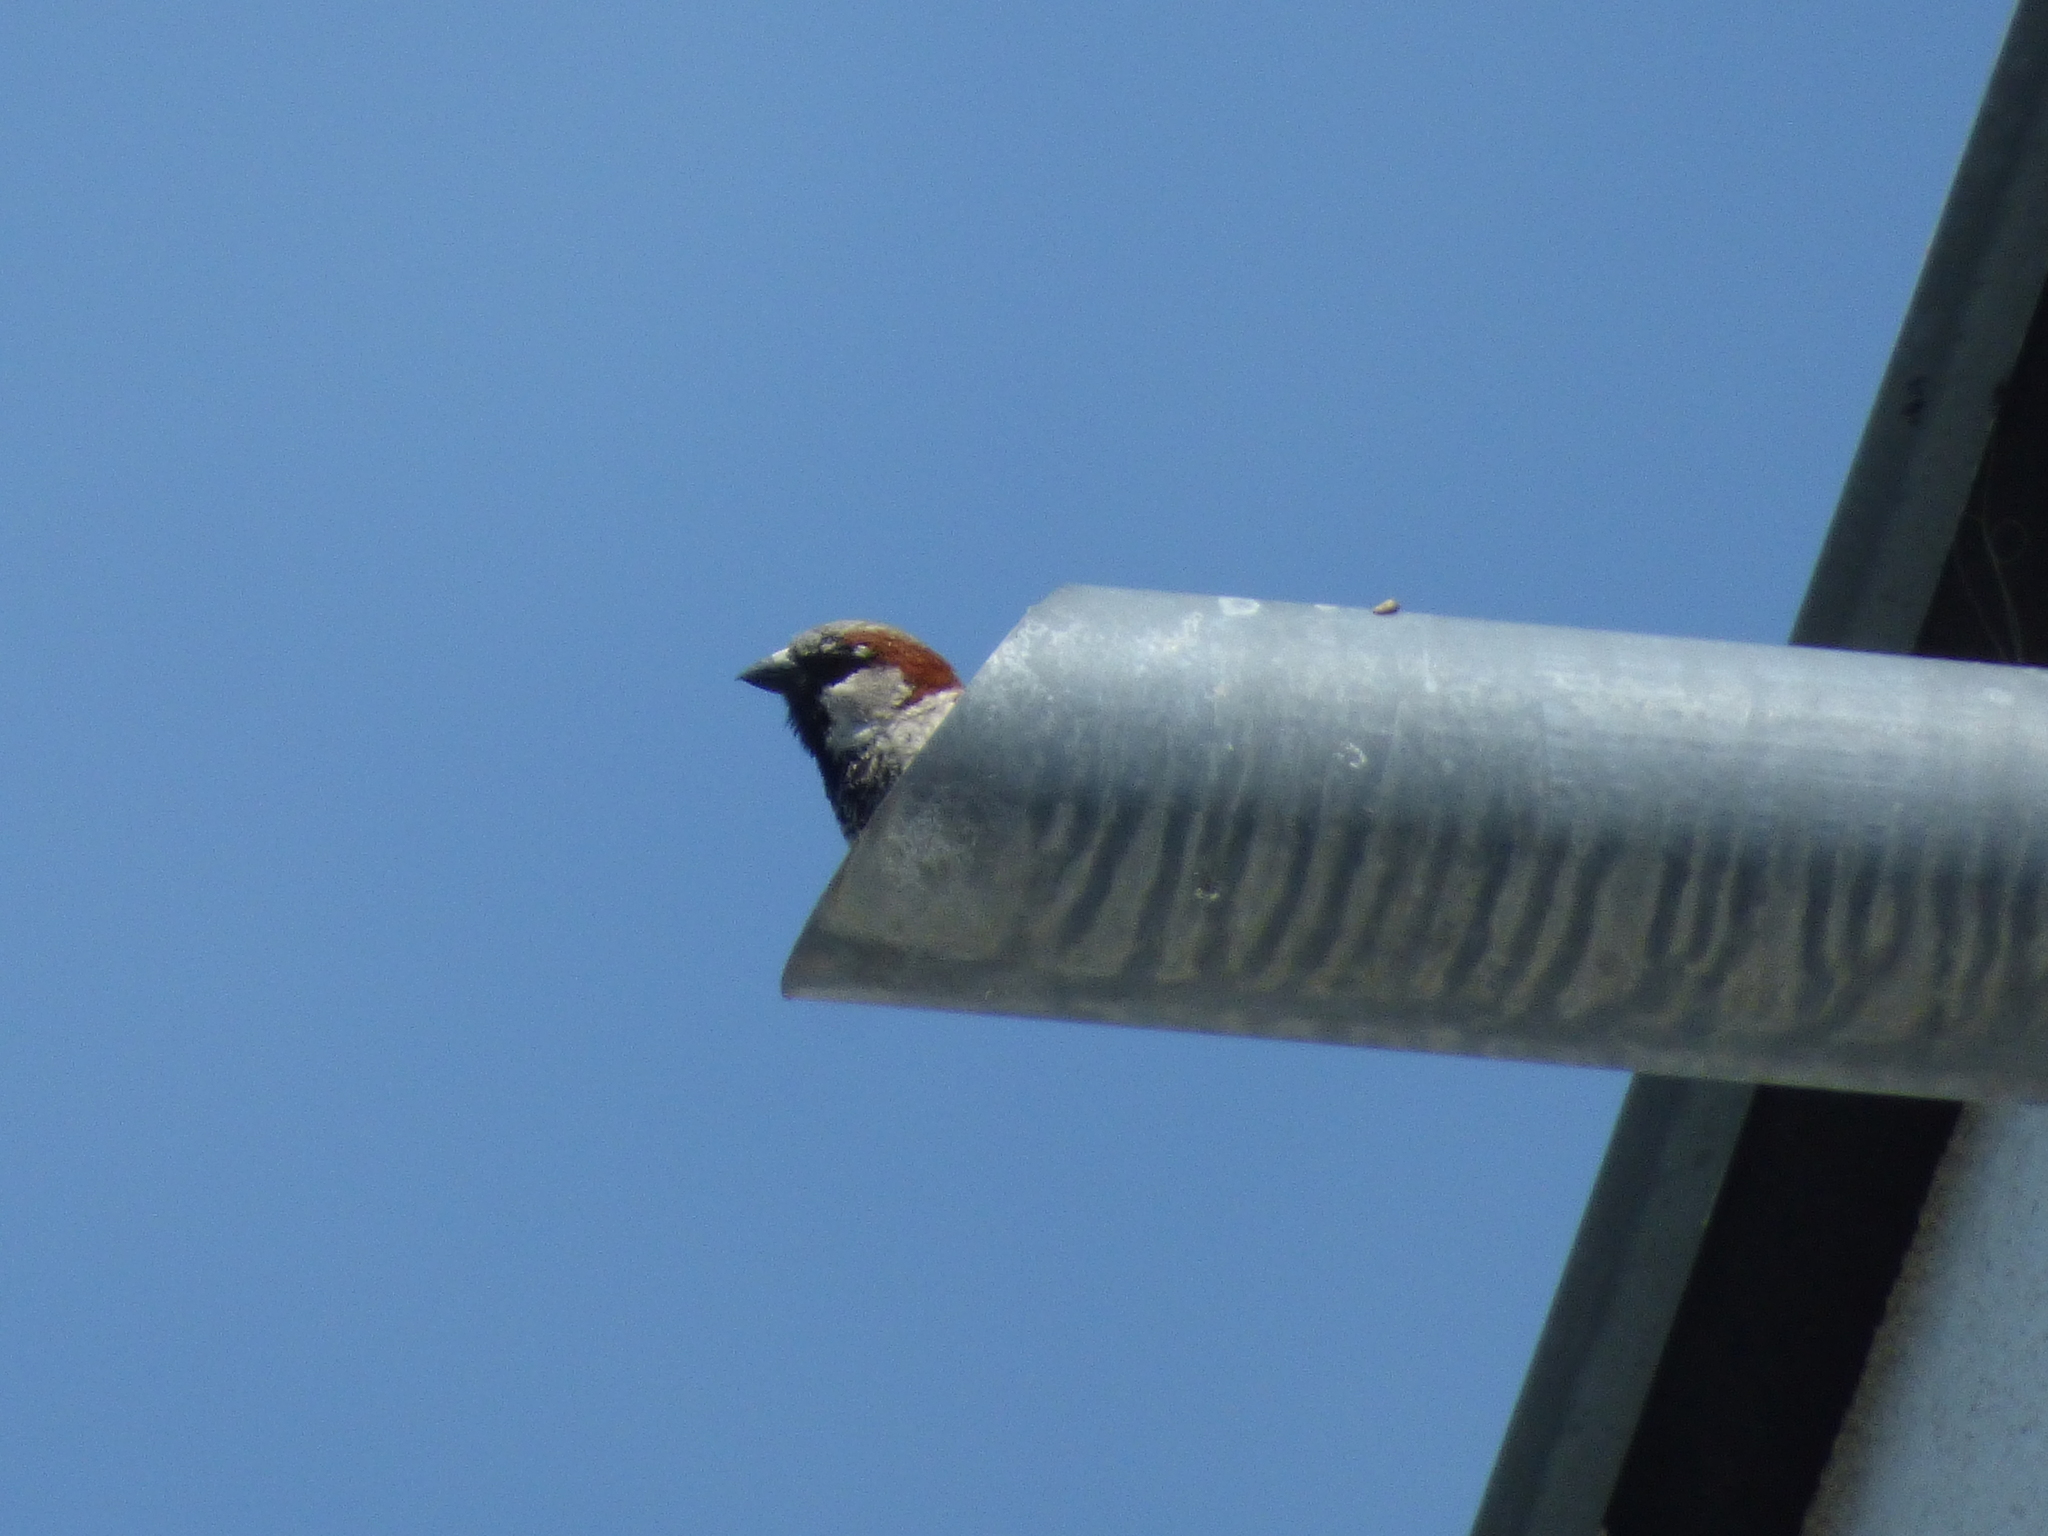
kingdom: Animalia
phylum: Chordata
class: Aves
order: Passeriformes
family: Passeridae
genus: Passer
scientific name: Passer domesticus
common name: House sparrow
